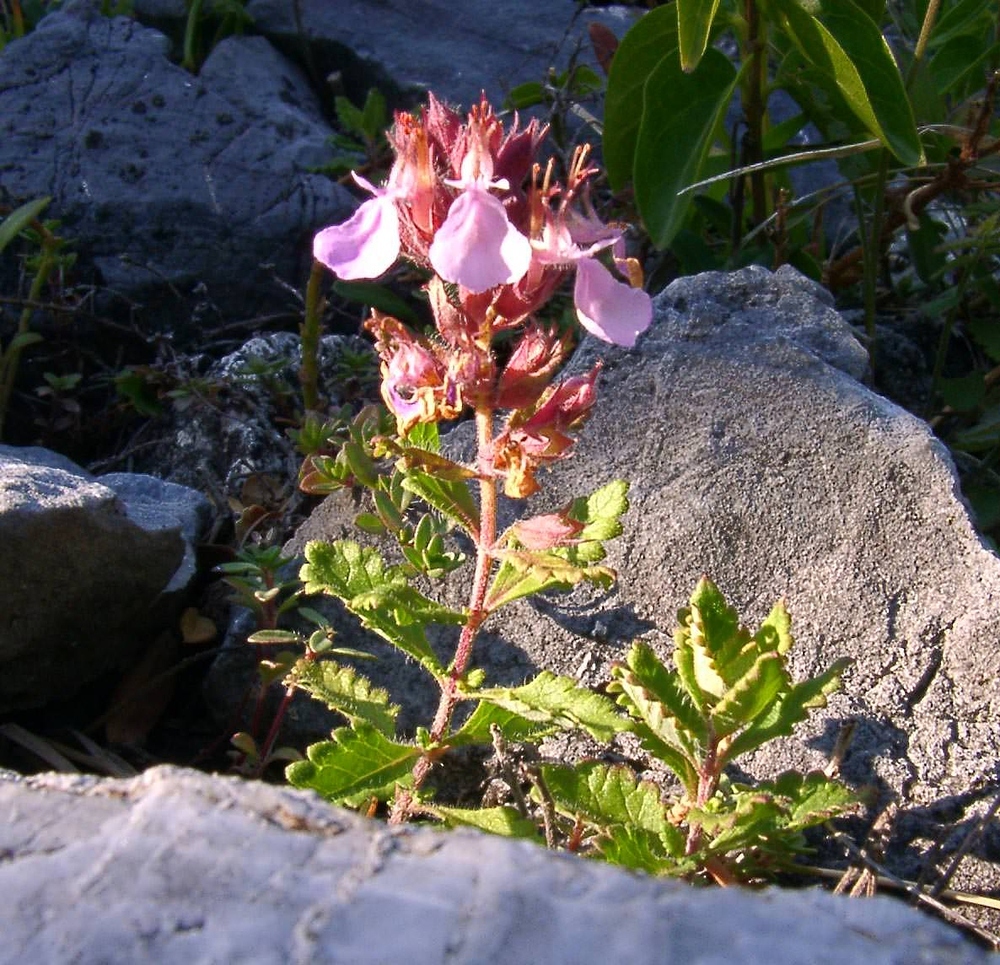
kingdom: Plantae
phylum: Tracheophyta
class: Magnoliopsida
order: Lamiales
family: Lamiaceae
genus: Teucrium
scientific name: Teucrium chamaedrys
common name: Wall germander
